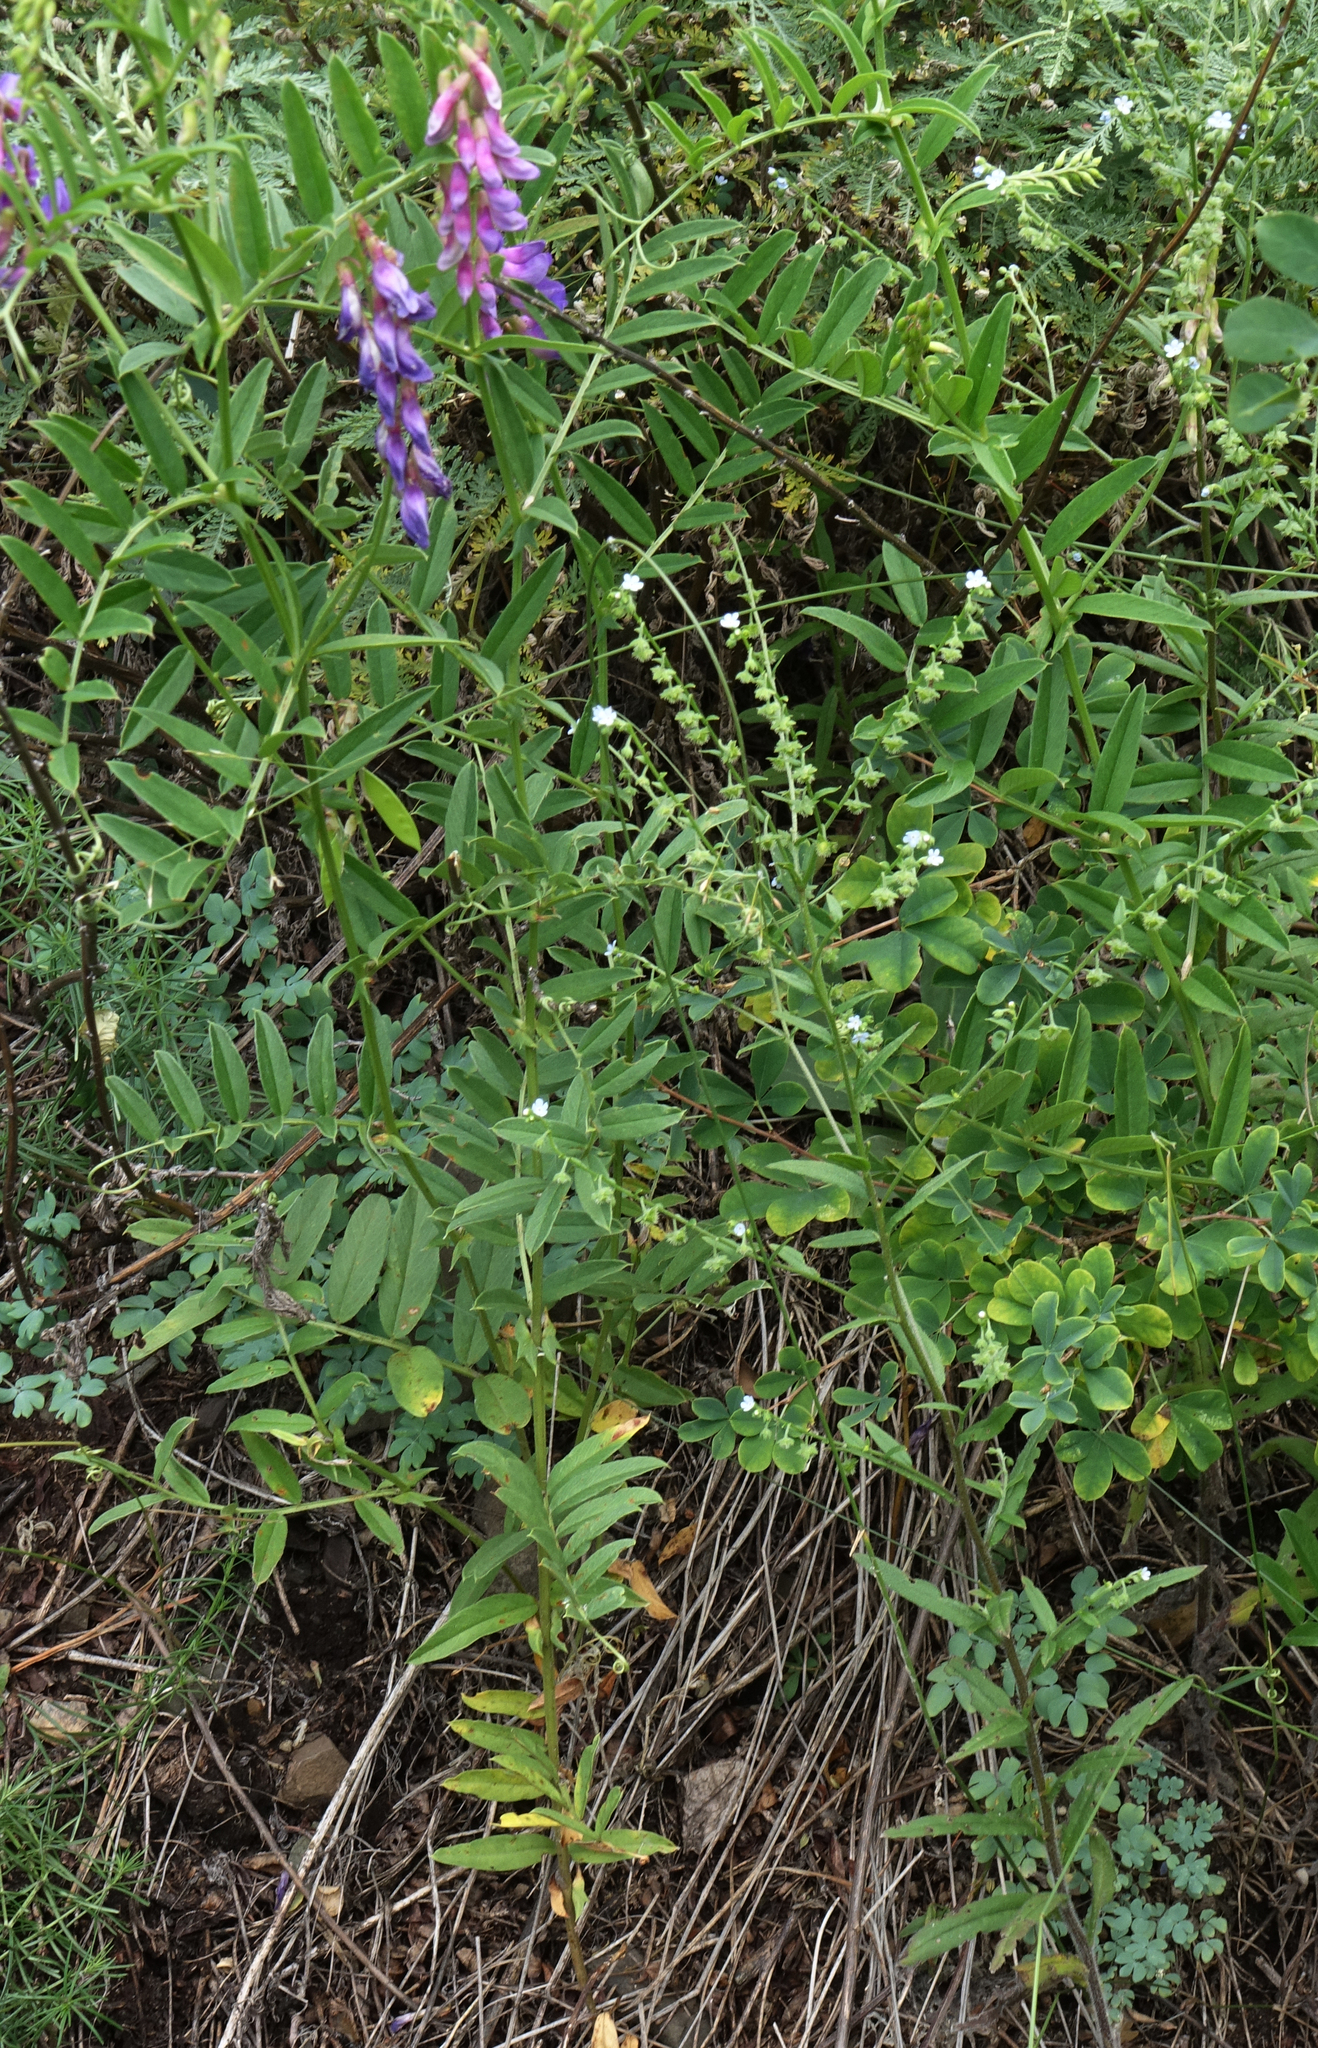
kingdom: Plantae
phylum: Tracheophyta
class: Magnoliopsida
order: Fabales
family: Fabaceae
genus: Vicia
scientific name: Vicia amoena
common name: Cheder ebs
